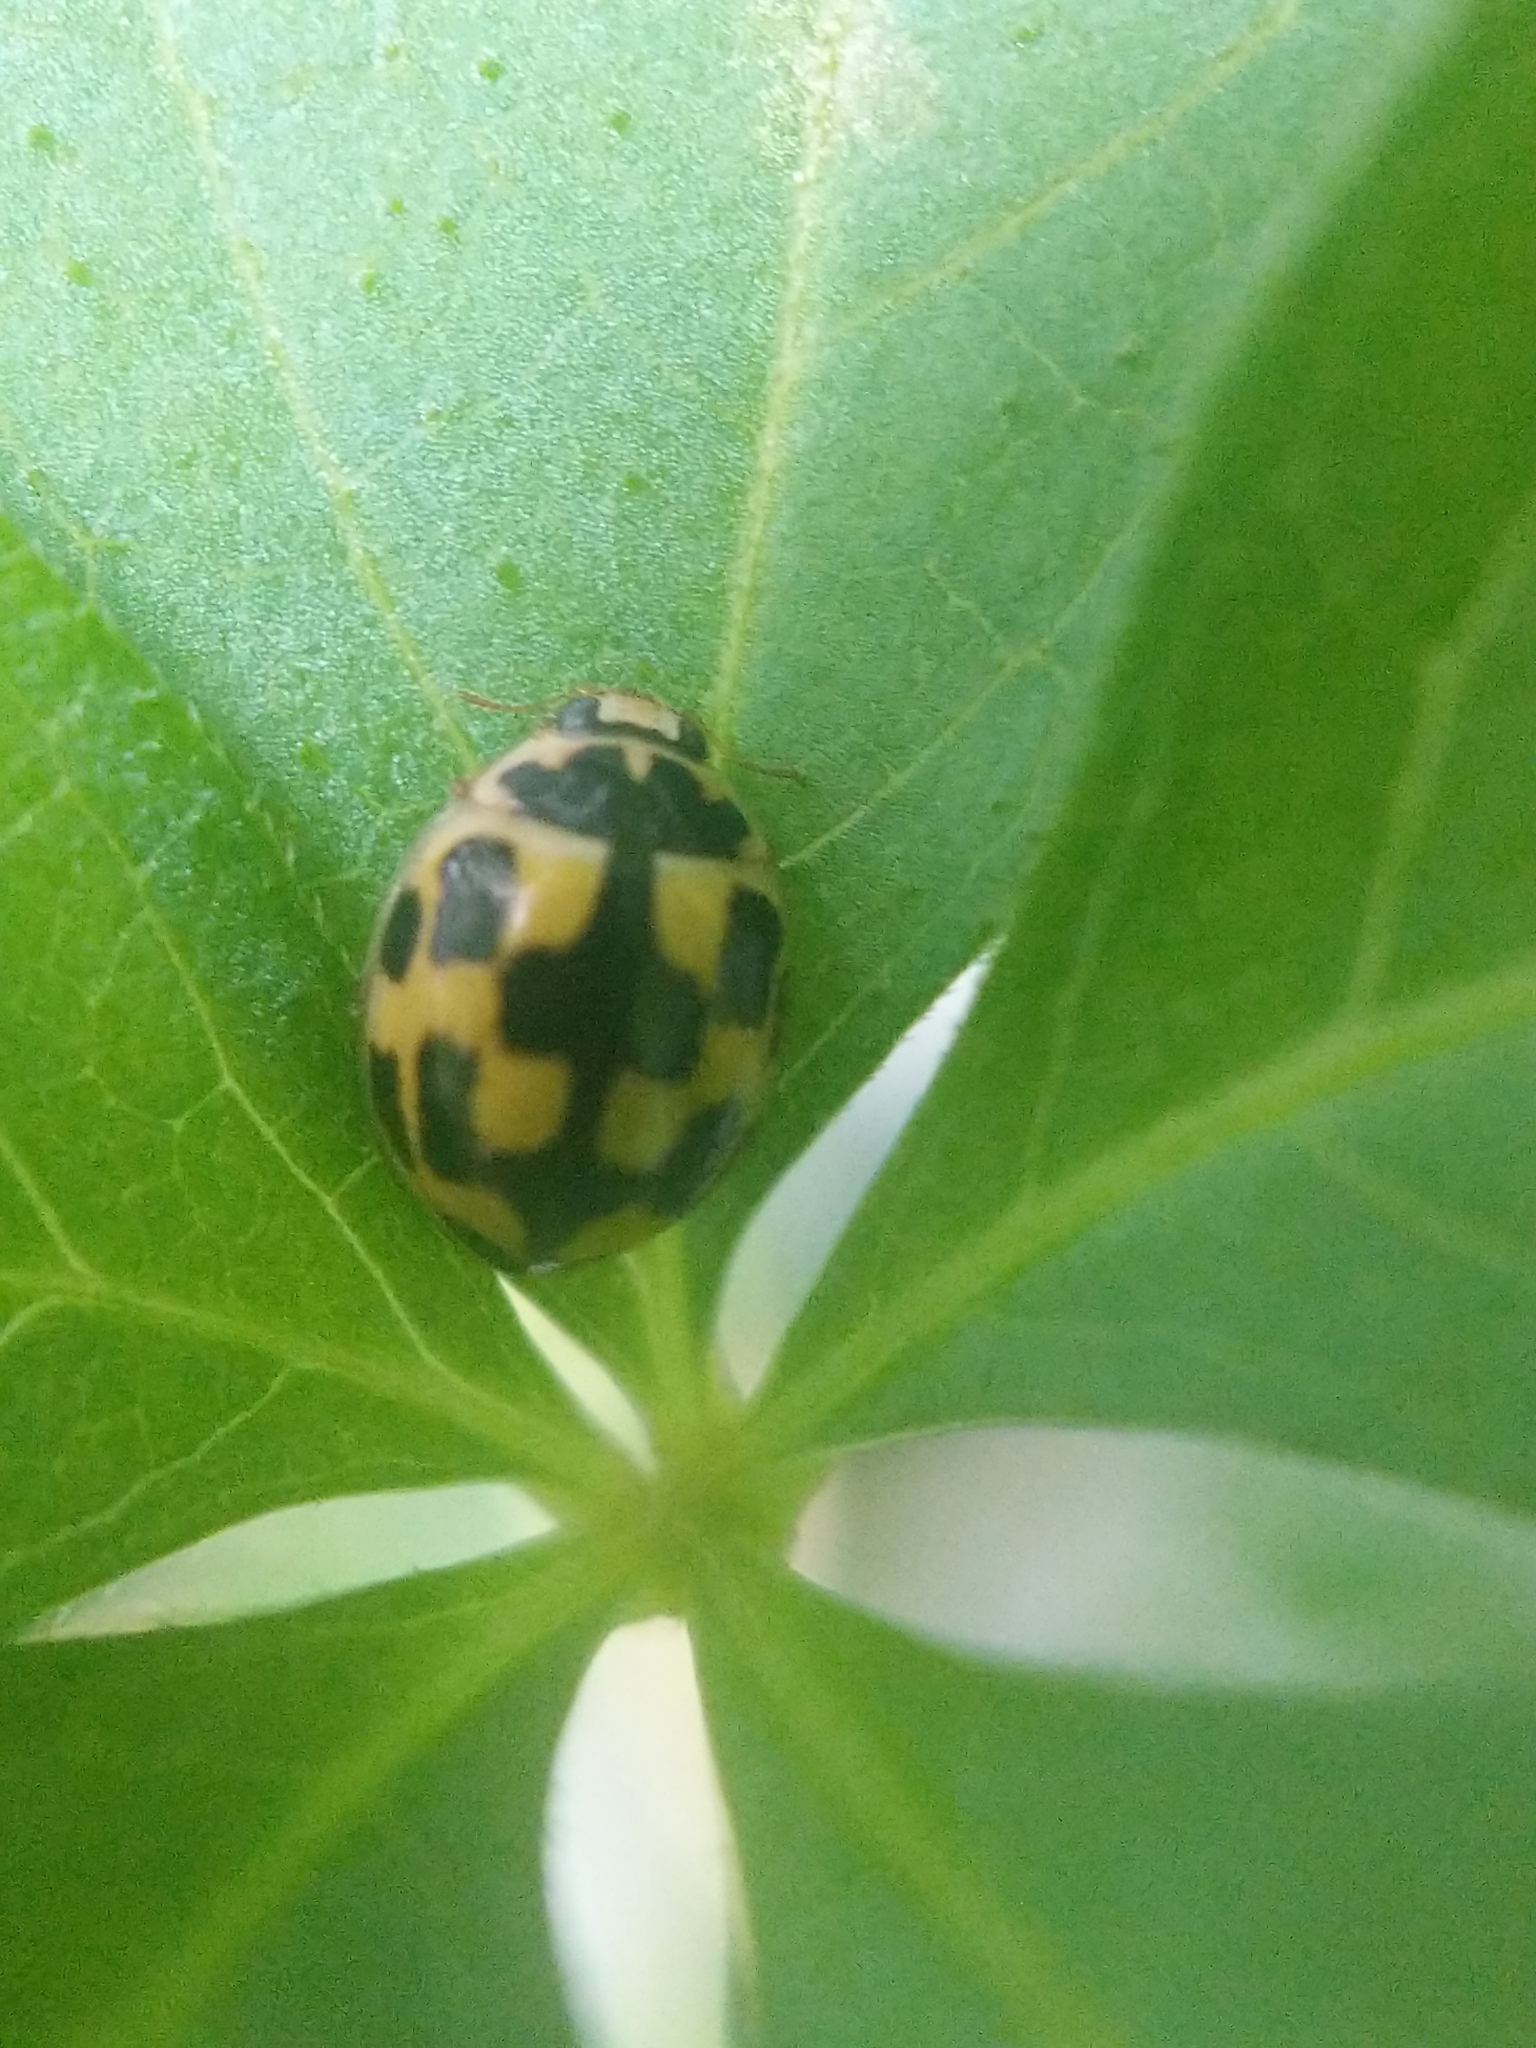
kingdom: Animalia
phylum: Arthropoda
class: Insecta
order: Coleoptera
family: Coccinellidae
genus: Propylaea
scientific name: Propylaea quatuordecimpunctata
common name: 14-spotted ladybird beetle
